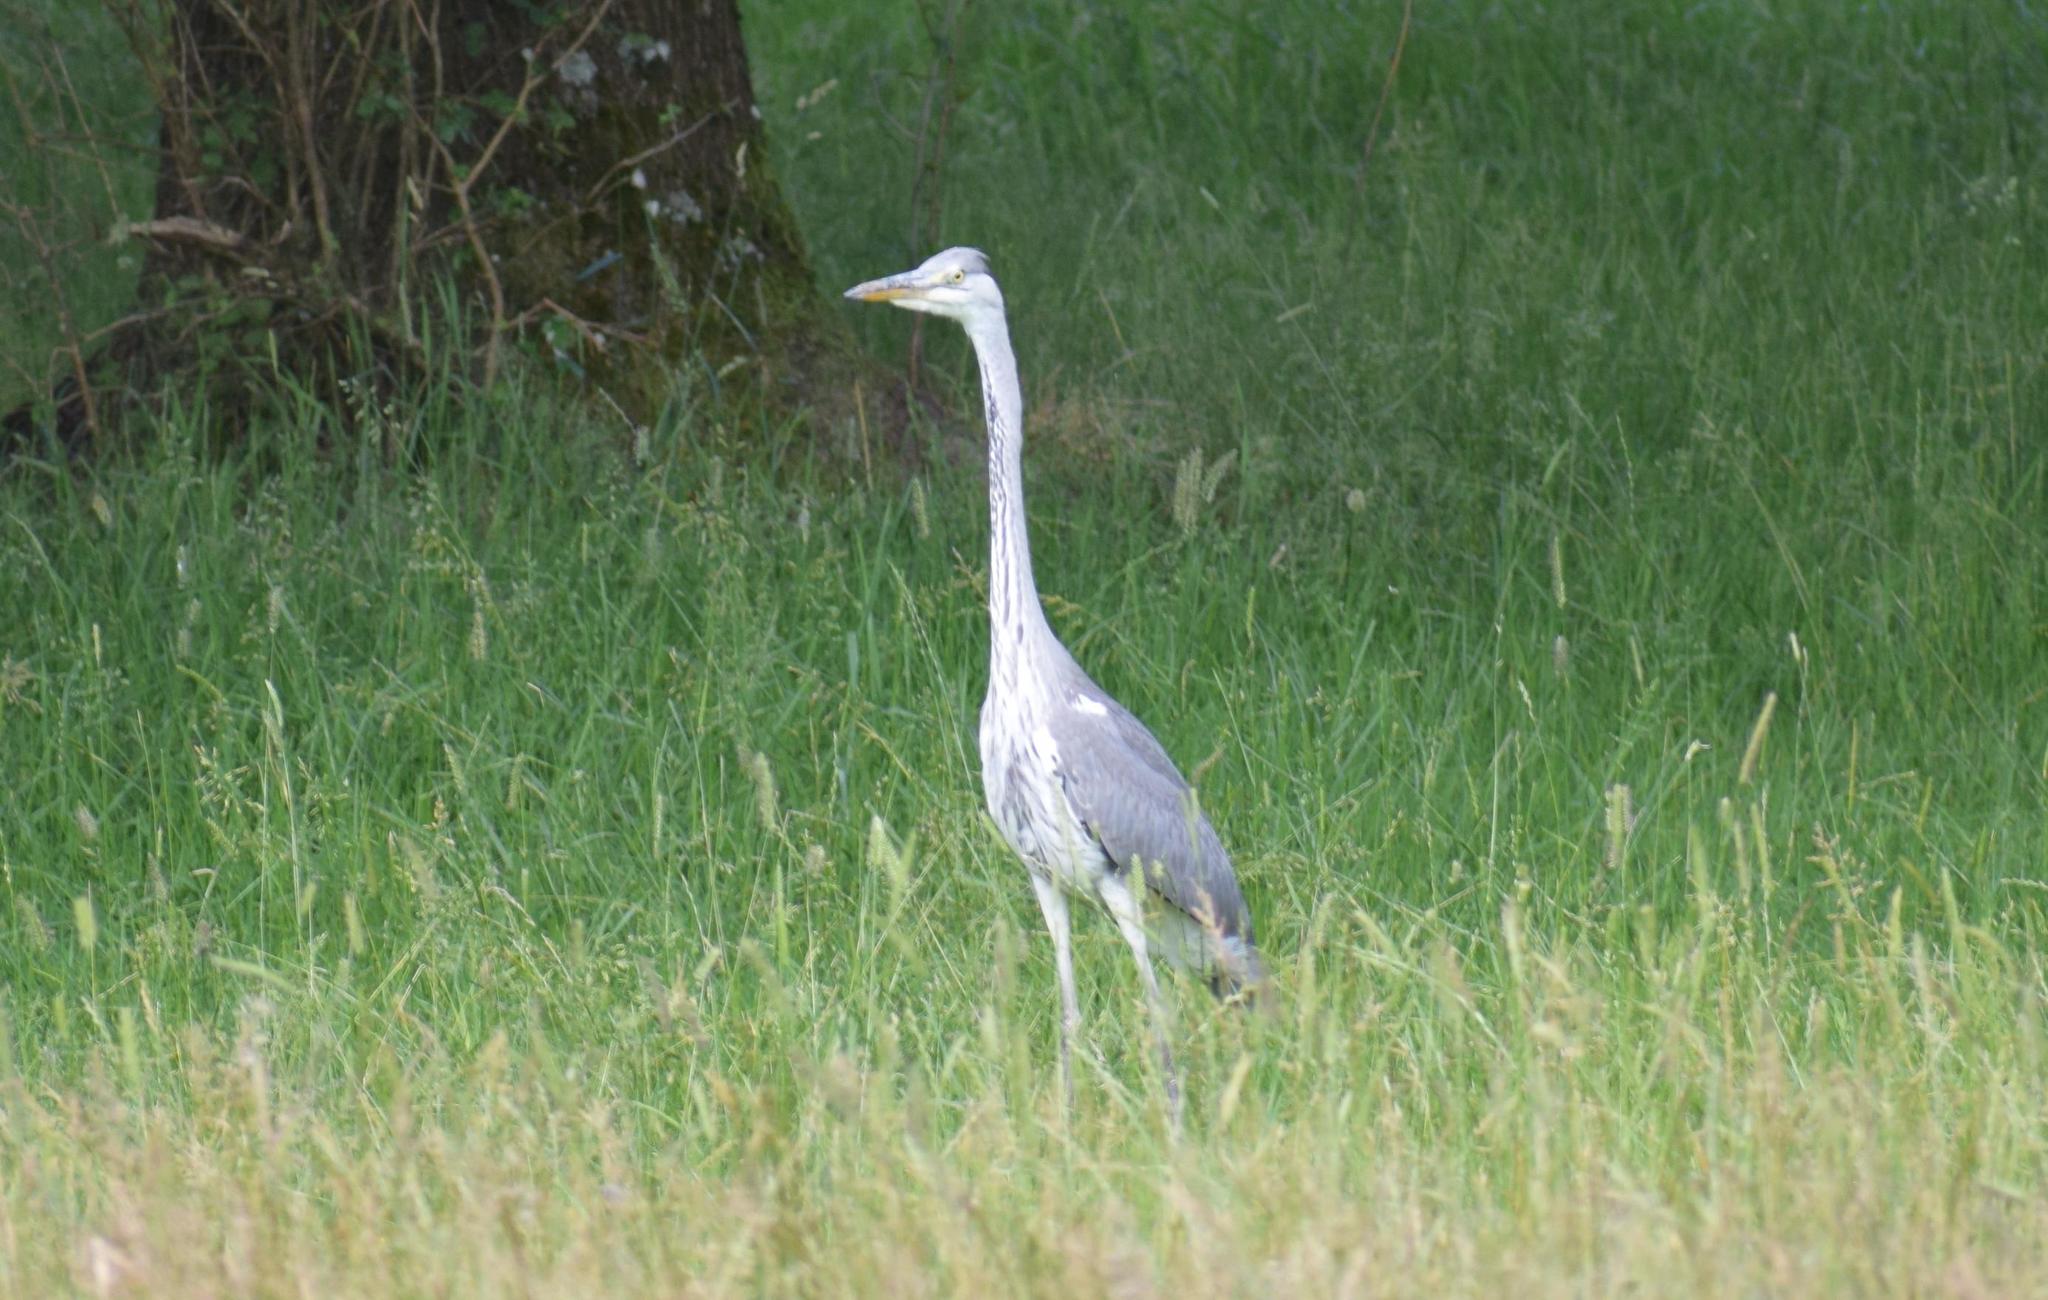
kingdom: Animalia
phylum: Chordata
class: Aves
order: Pelecaniformes
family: Ardeidae
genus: Ardea
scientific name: Ardea cinerea
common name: Grey heron
